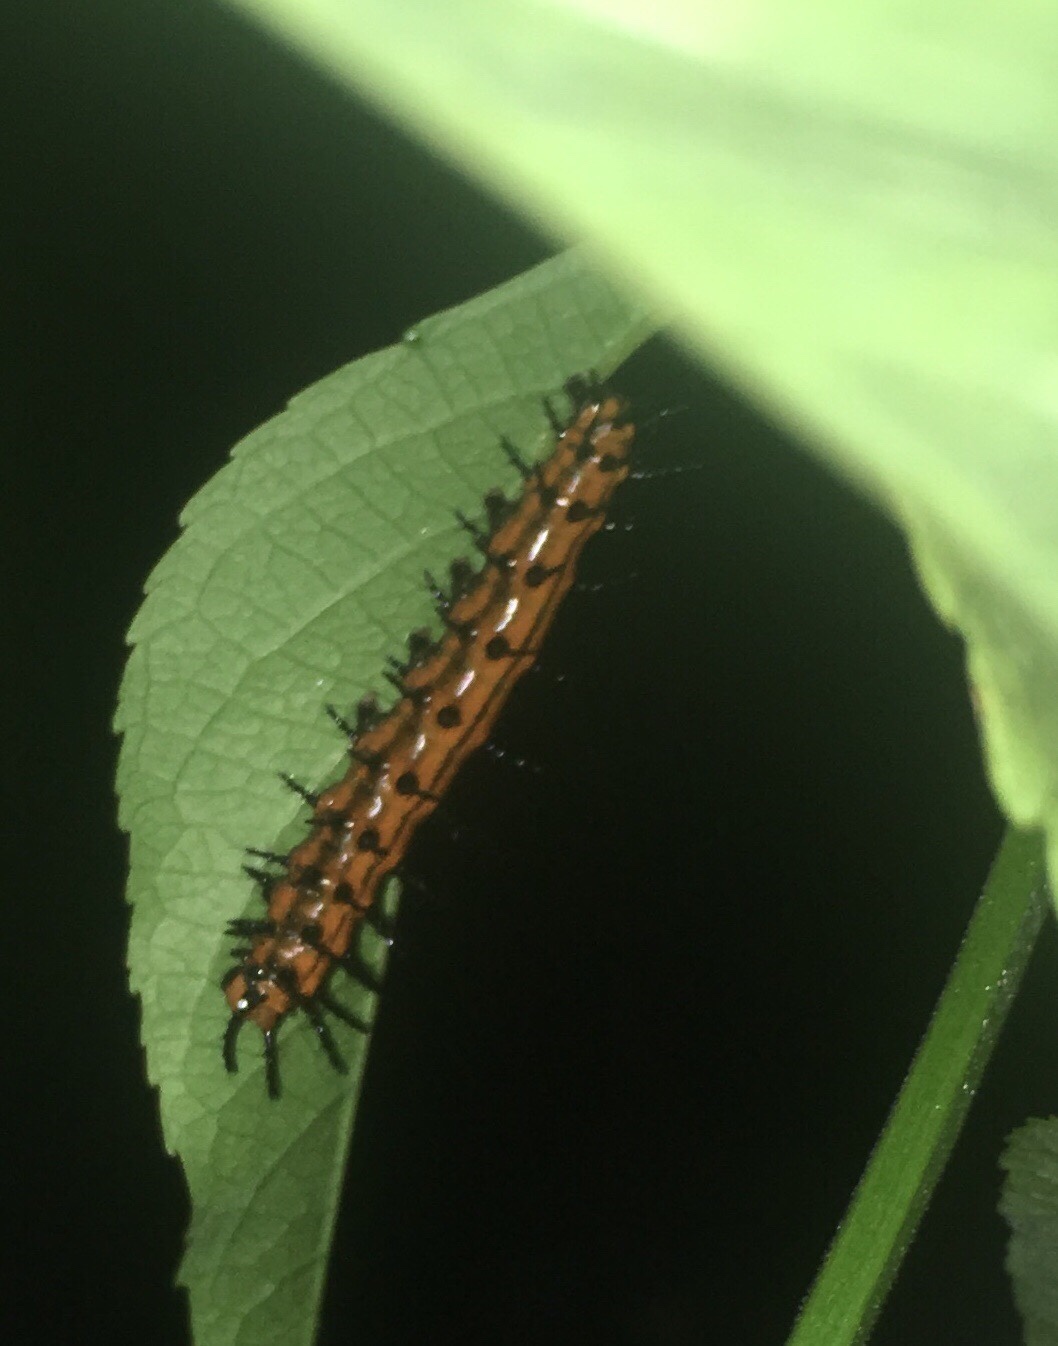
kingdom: Animalia
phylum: Arthropoda
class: Insecta
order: Lepidoptera
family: Nymphalidae
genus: Dione
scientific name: Dione vanillae
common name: Gulf fritillary
